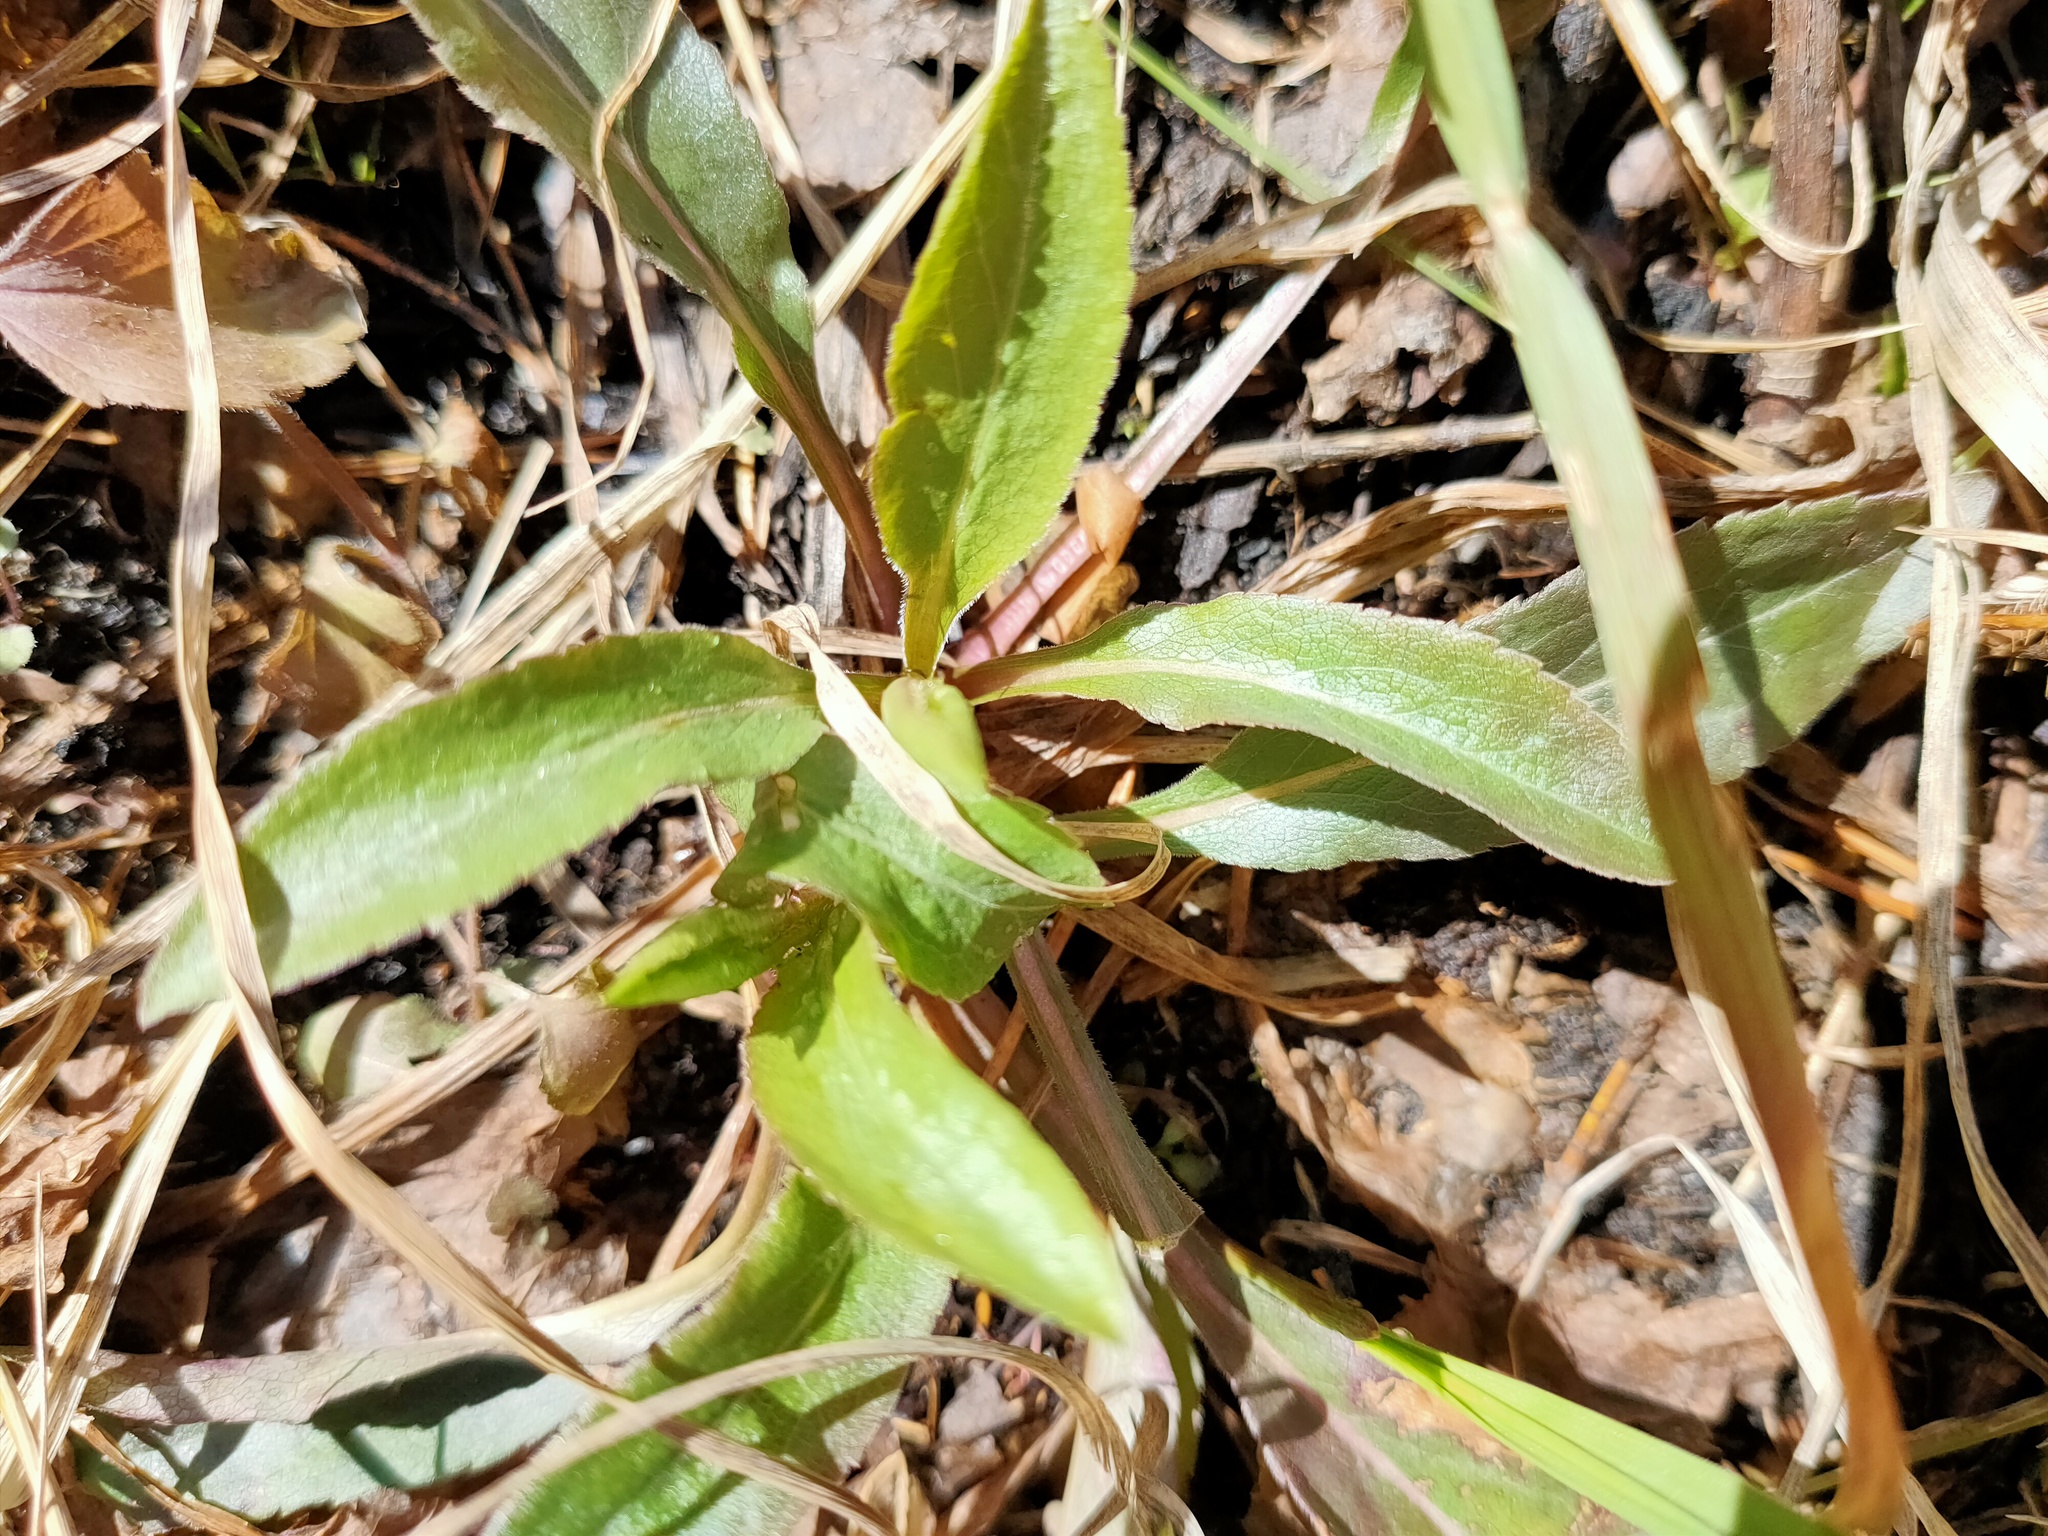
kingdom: Plantae
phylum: Tracheophyta
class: Magnoliopsida
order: Asterales
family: Asteraceae
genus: Solidago
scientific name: Solidago virgaurea
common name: Goldenrod
